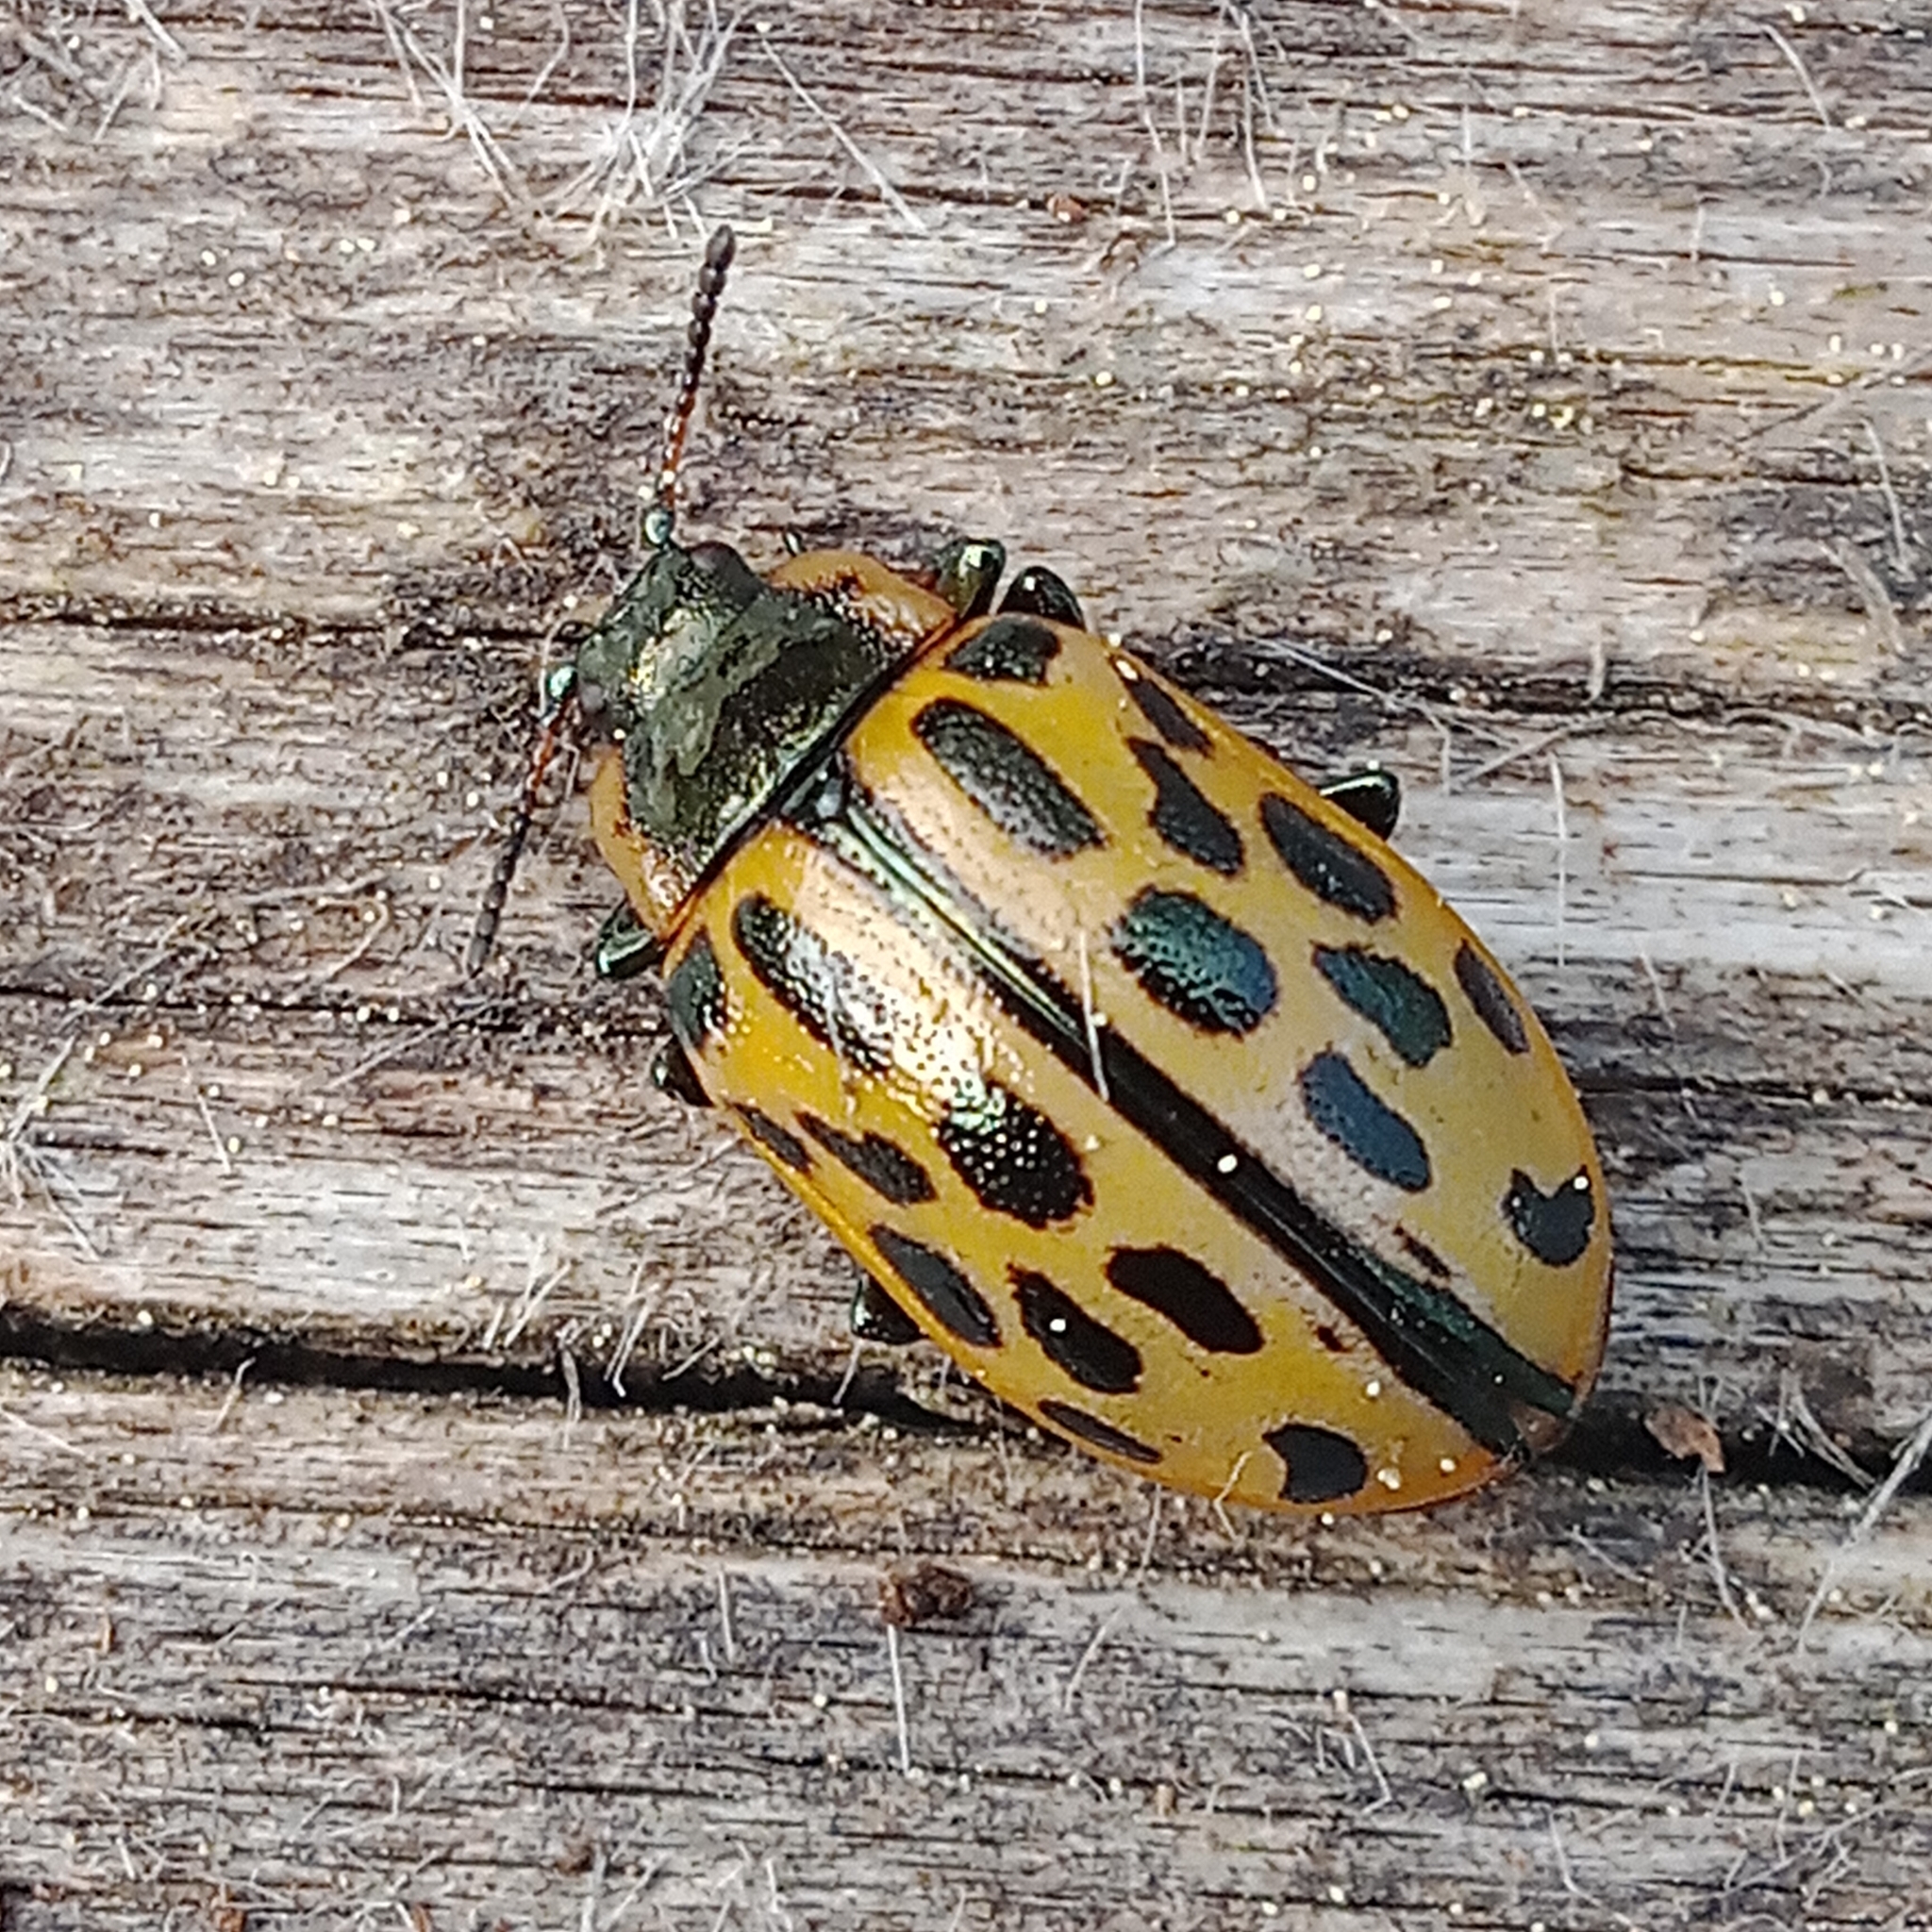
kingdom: Animalia
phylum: Arthropoda
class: Insecta
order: Coleoptera
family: Chrysomelidae
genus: Chrysomela
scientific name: Chrysomela vigintipunctata
